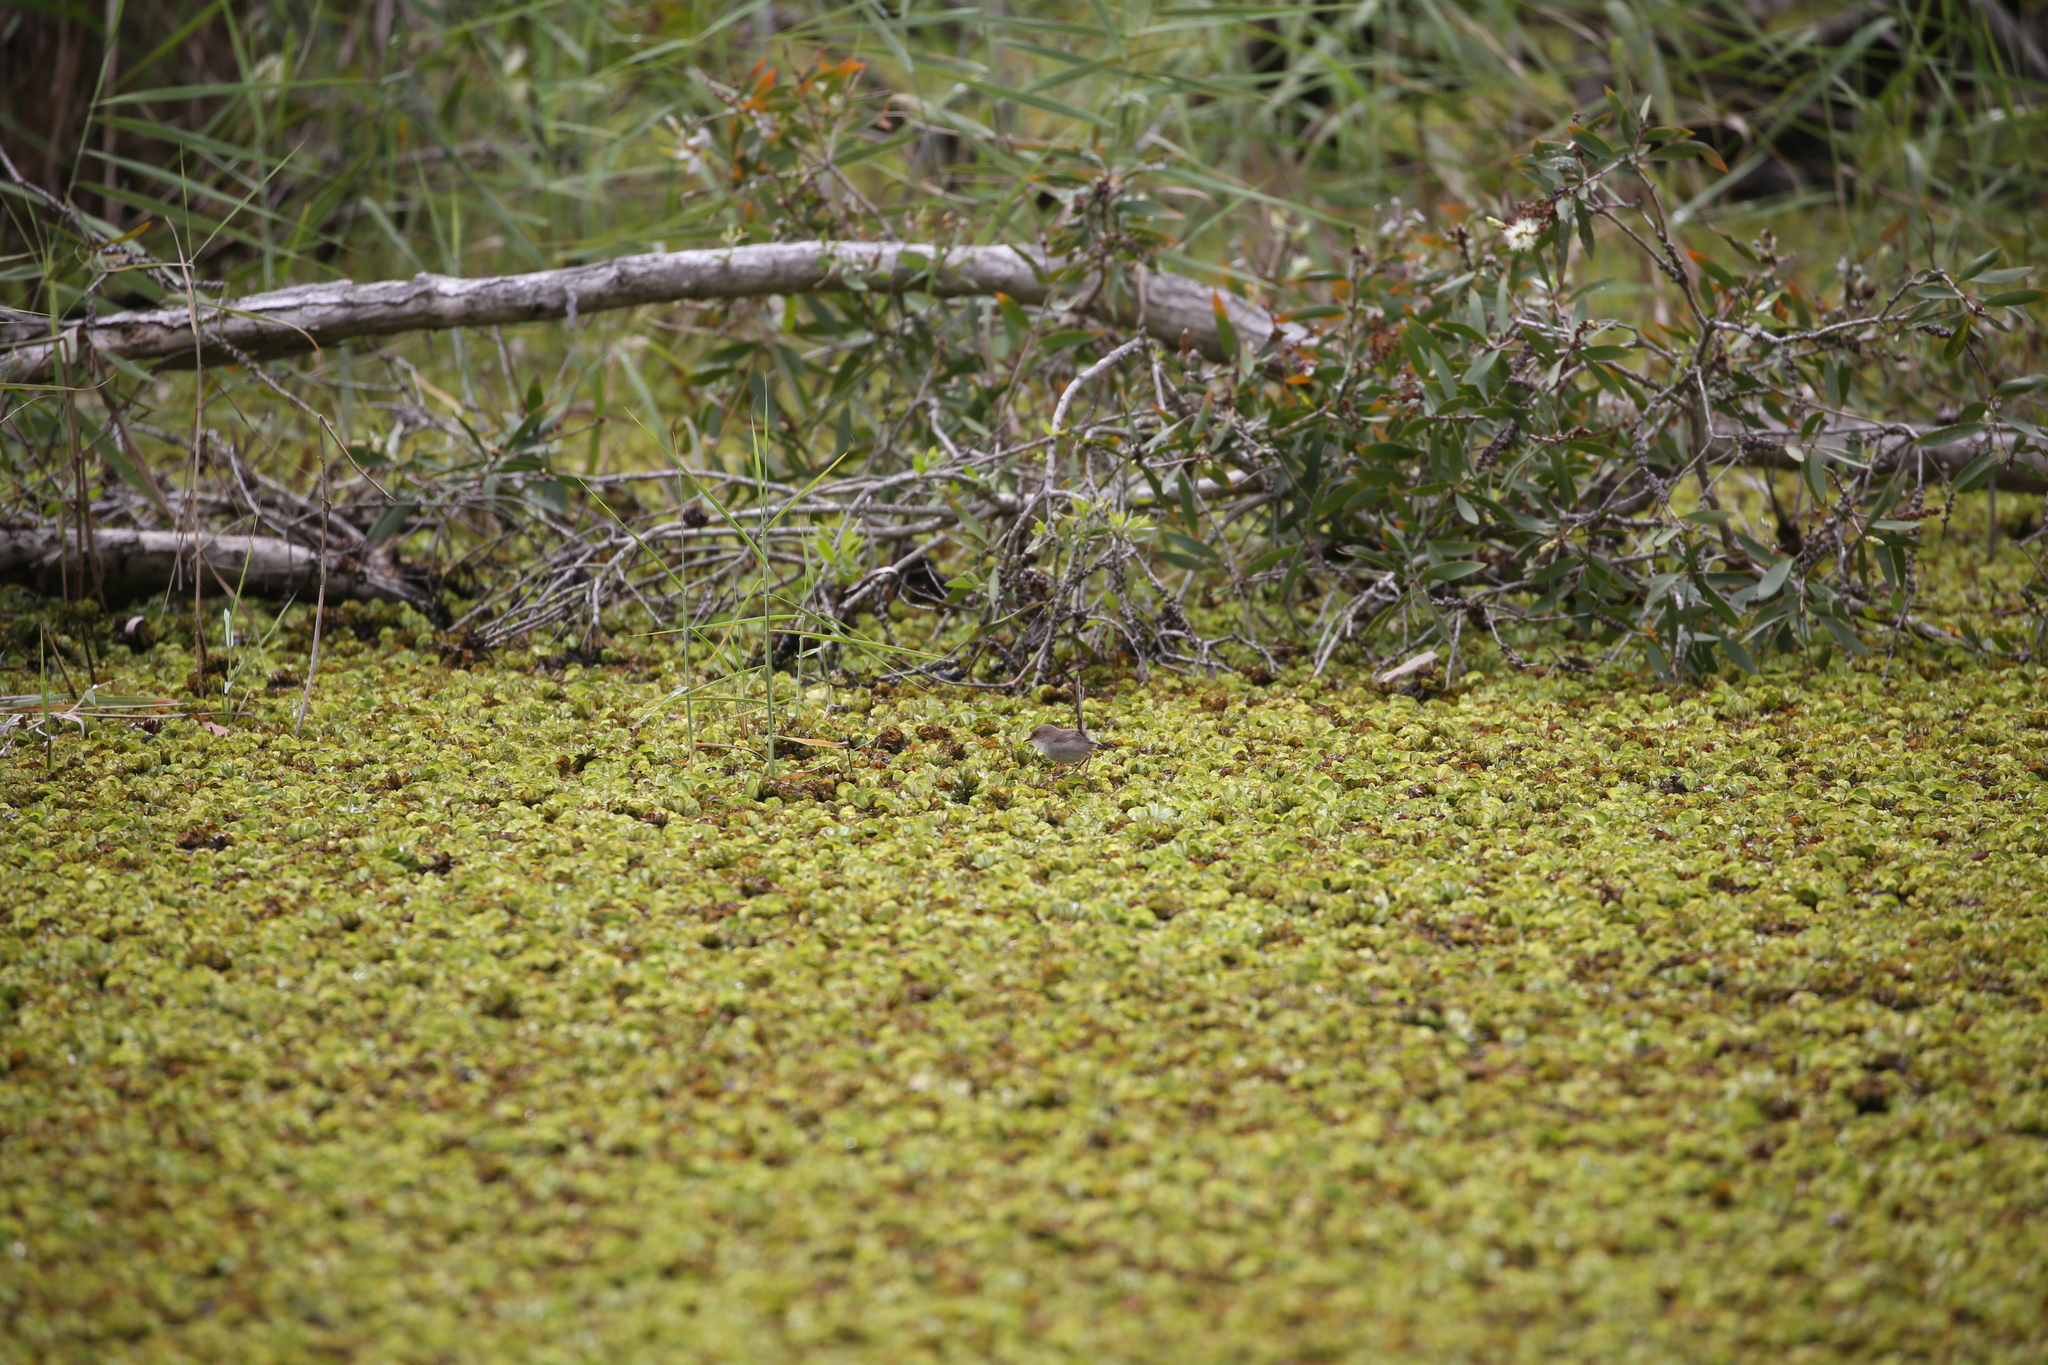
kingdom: Animalia
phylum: Chordata
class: Aves
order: Passeriformes
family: Maluridae
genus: Malurus
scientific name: Malurus cyaneus
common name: Superb fairywren
